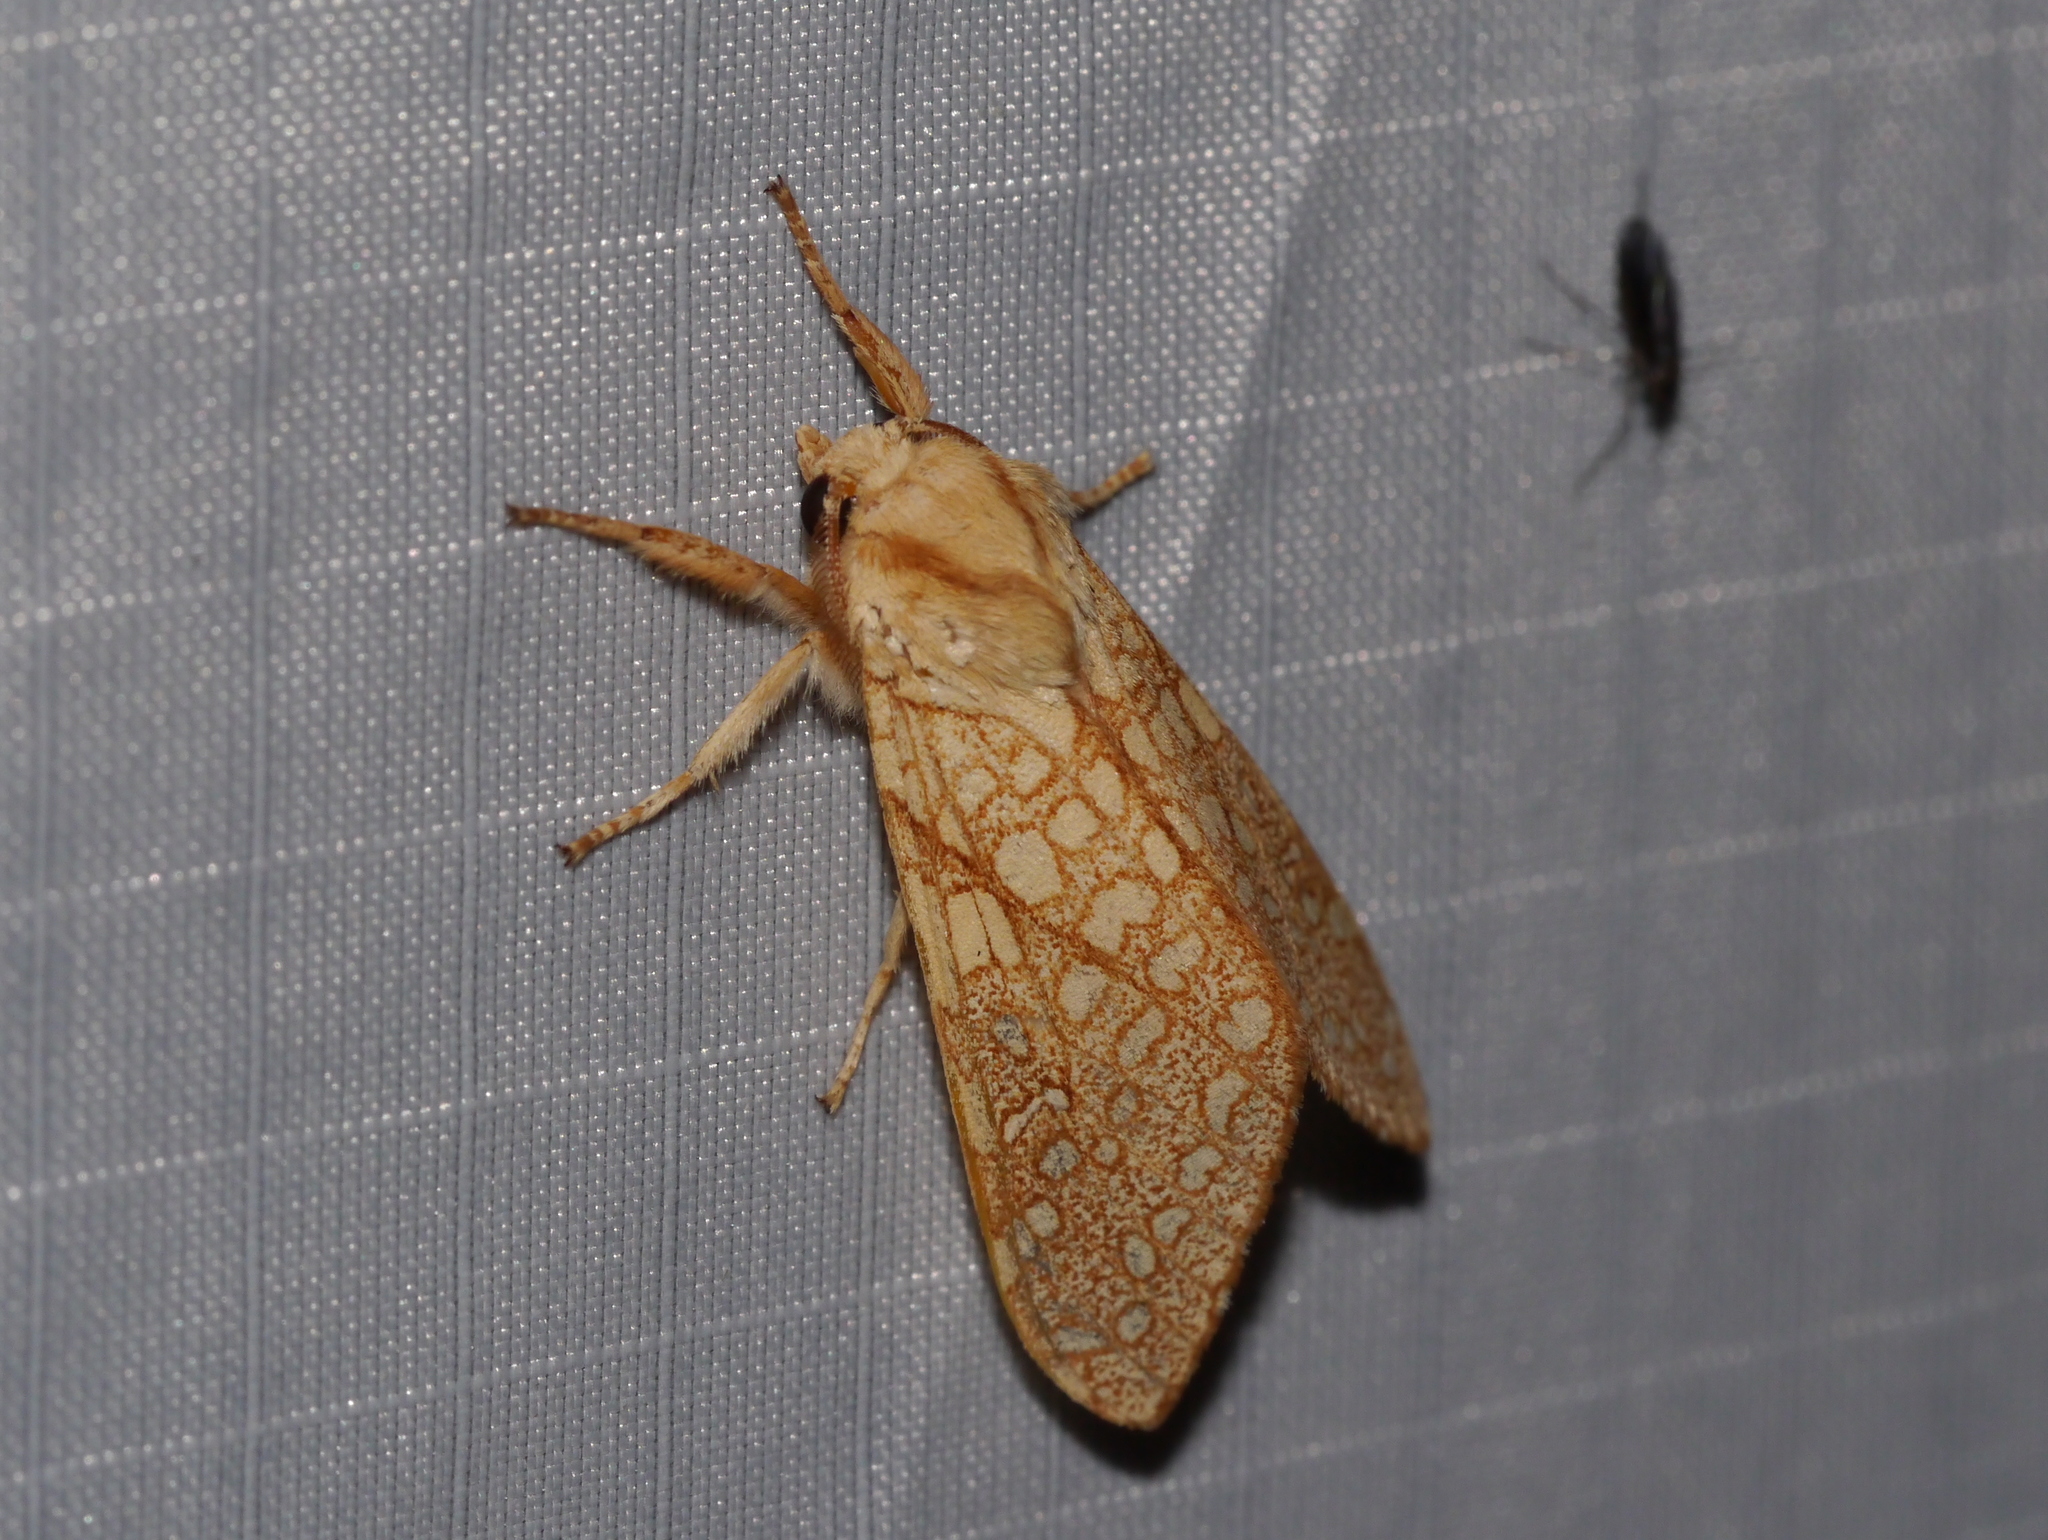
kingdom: Animalia
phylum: Arthropoda
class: Insecta
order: Lepidoptera
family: Erebidae
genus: Lophocampa
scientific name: Lophocampa mixta
